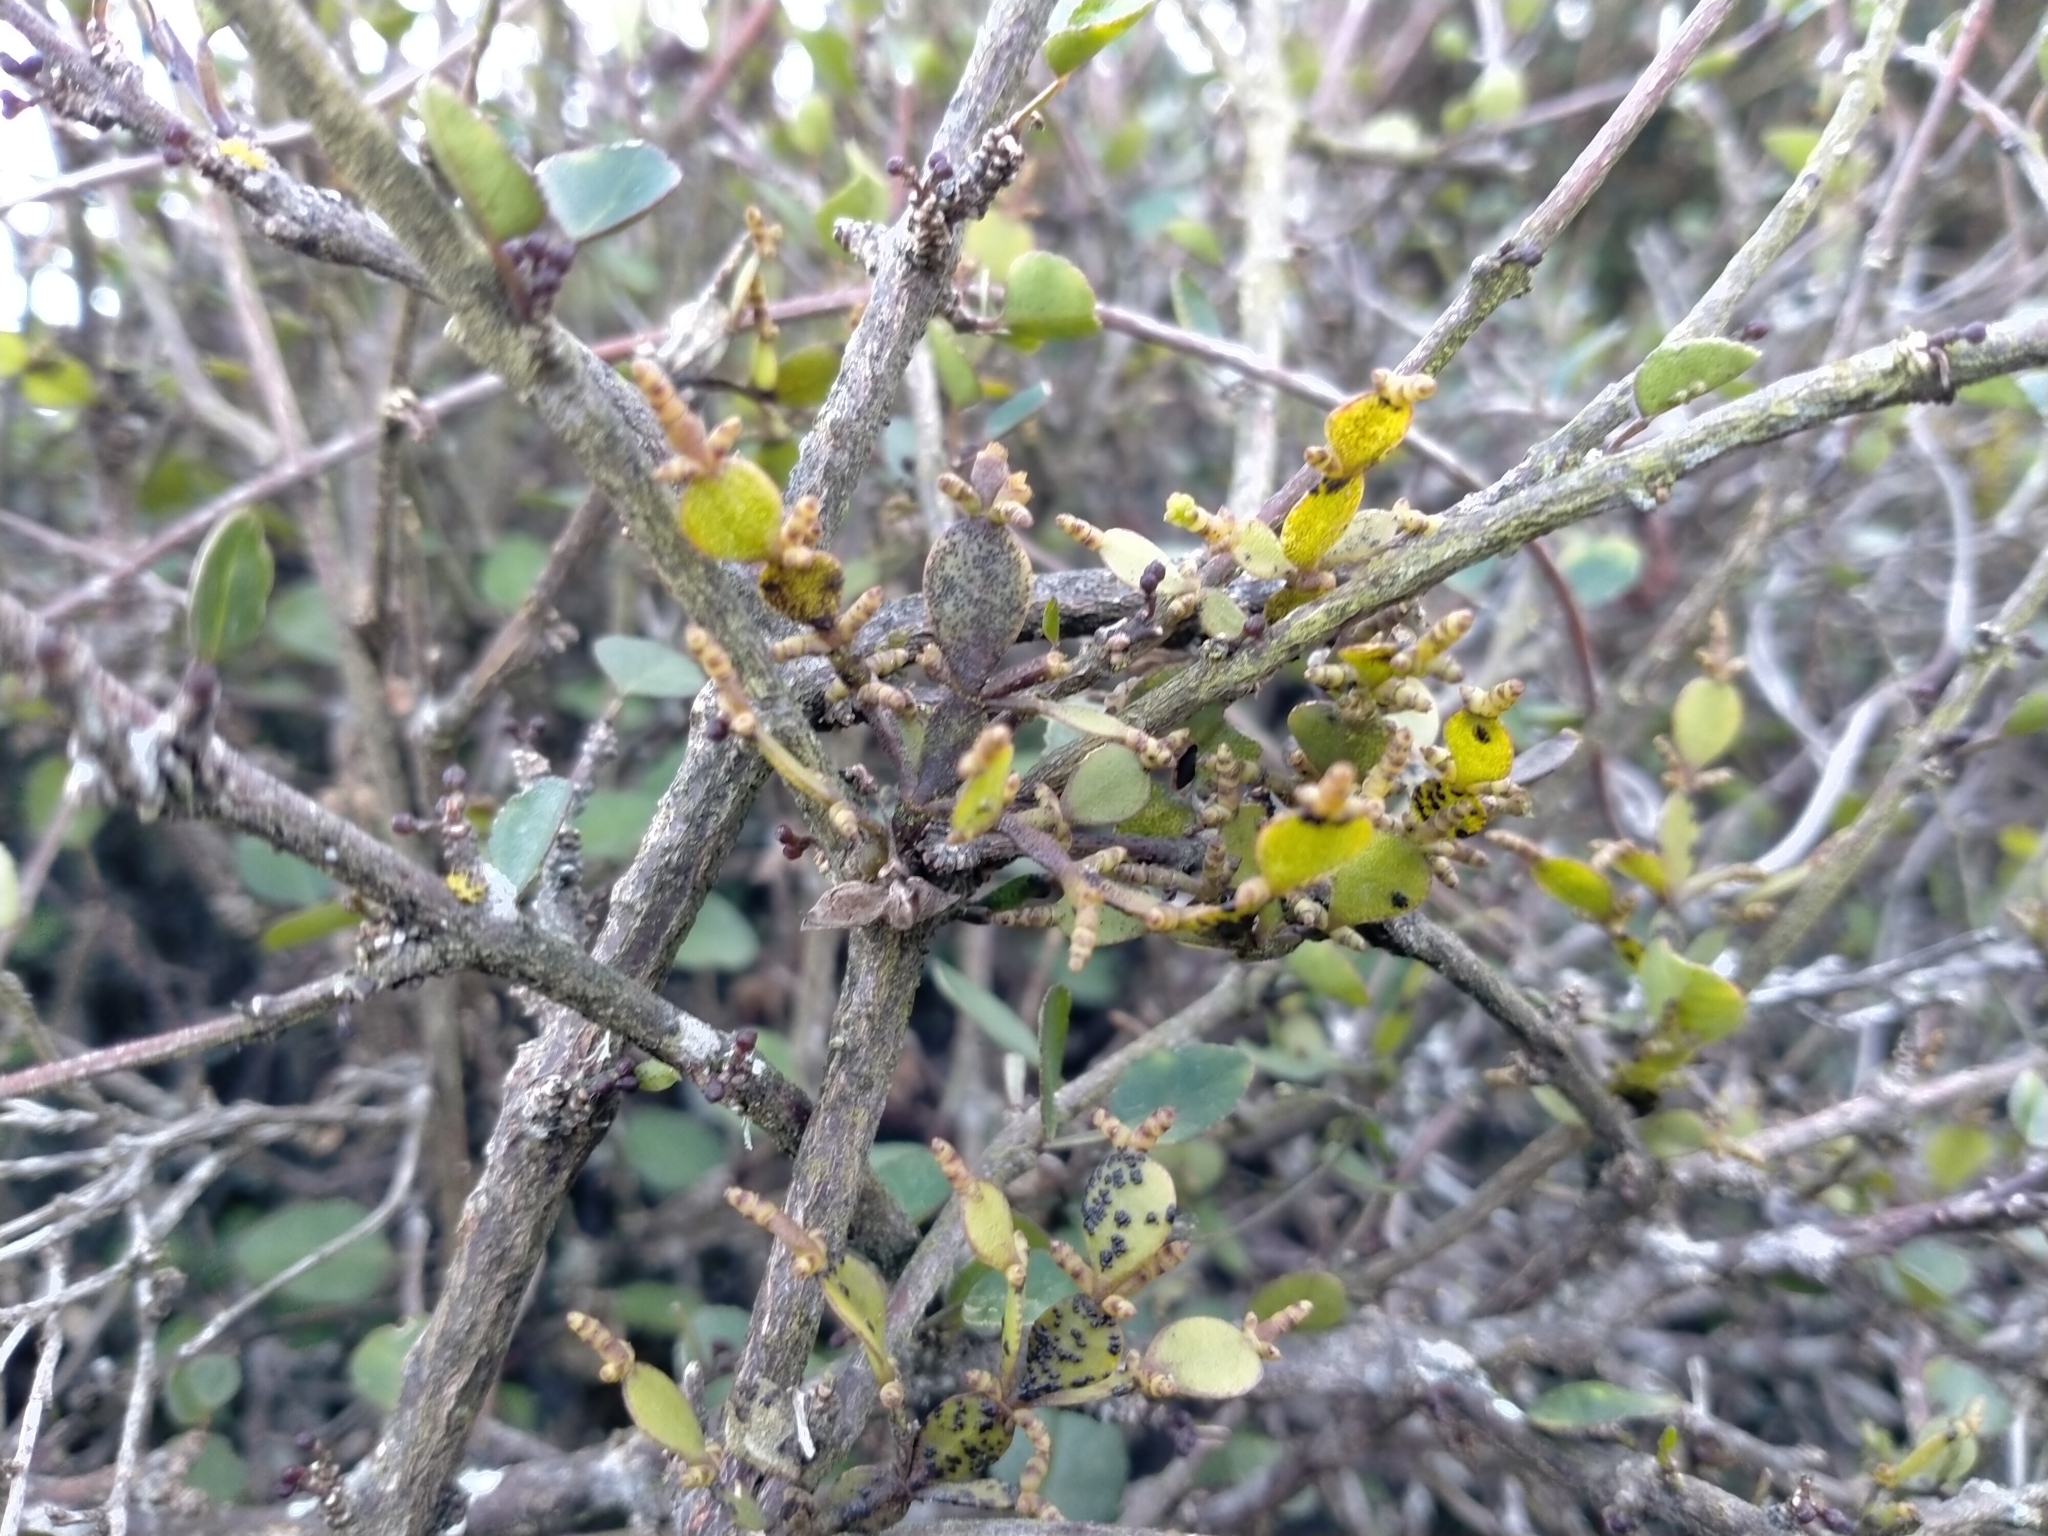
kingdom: Plantae
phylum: Tracheophyta
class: Magnoliopsida
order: Santalales
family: Viscaceae
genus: Korthalsella
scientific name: Korthalsella lindsayi
